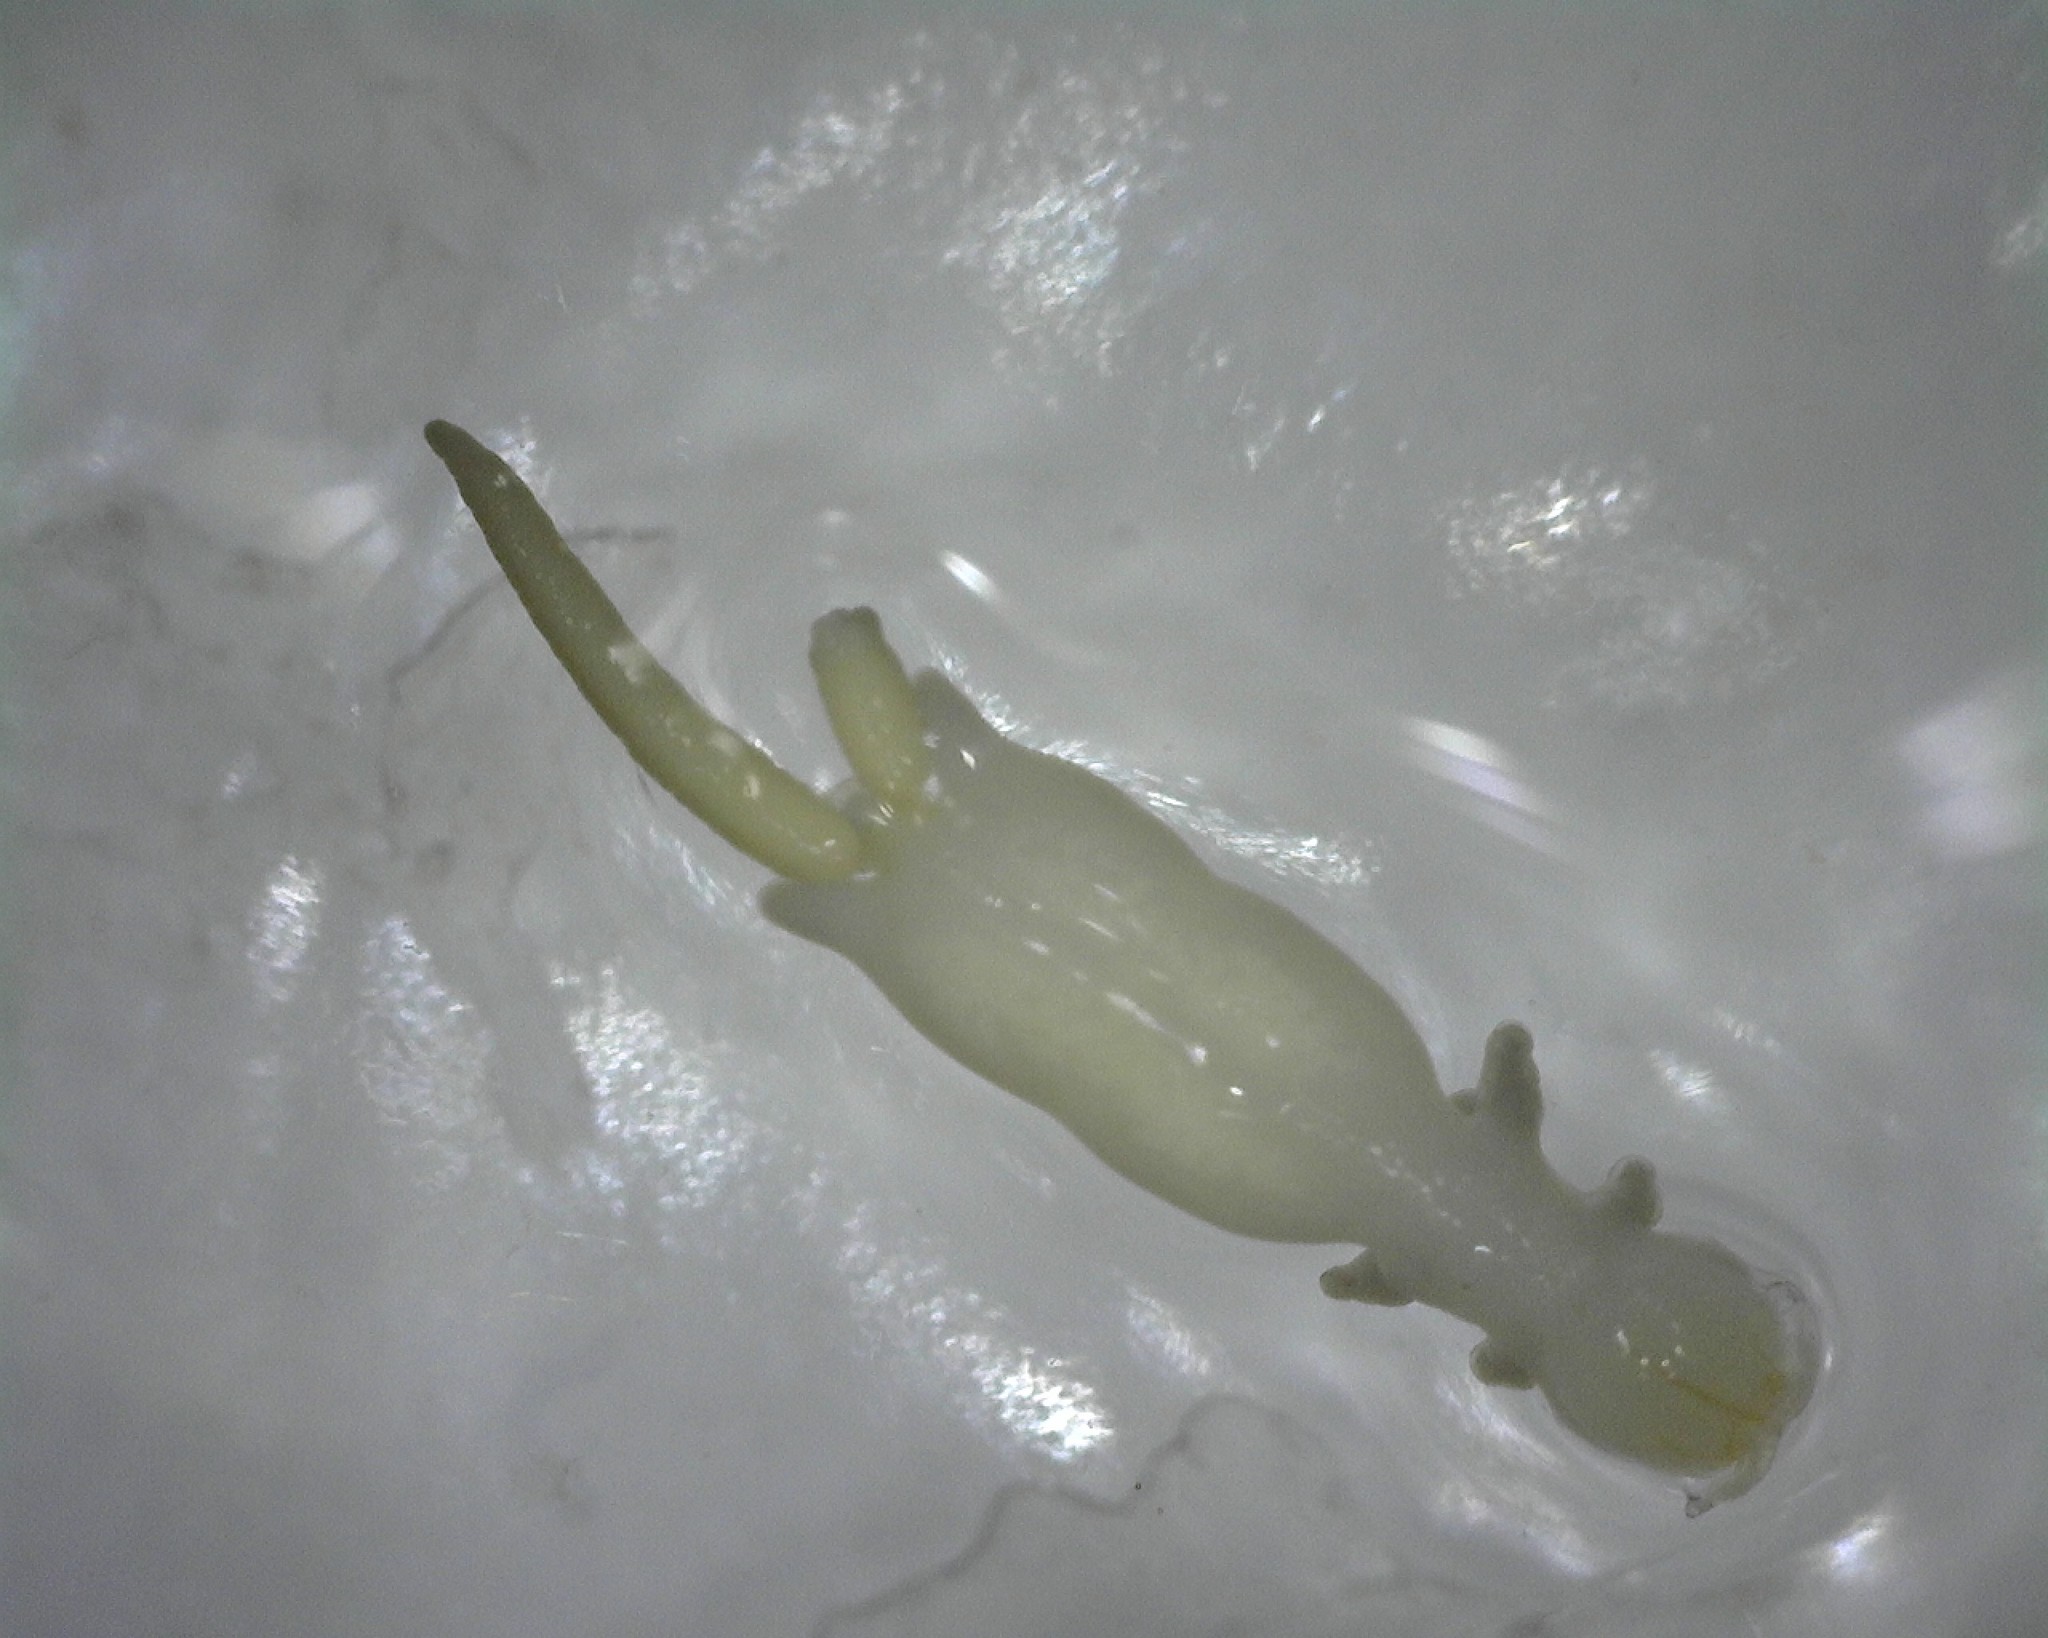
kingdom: Animalia
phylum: Arthropoda
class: Copepoda
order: Cyclopoida
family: Chondracanthidae
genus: Acanthochondria
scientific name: Acanthochondria cornuta
